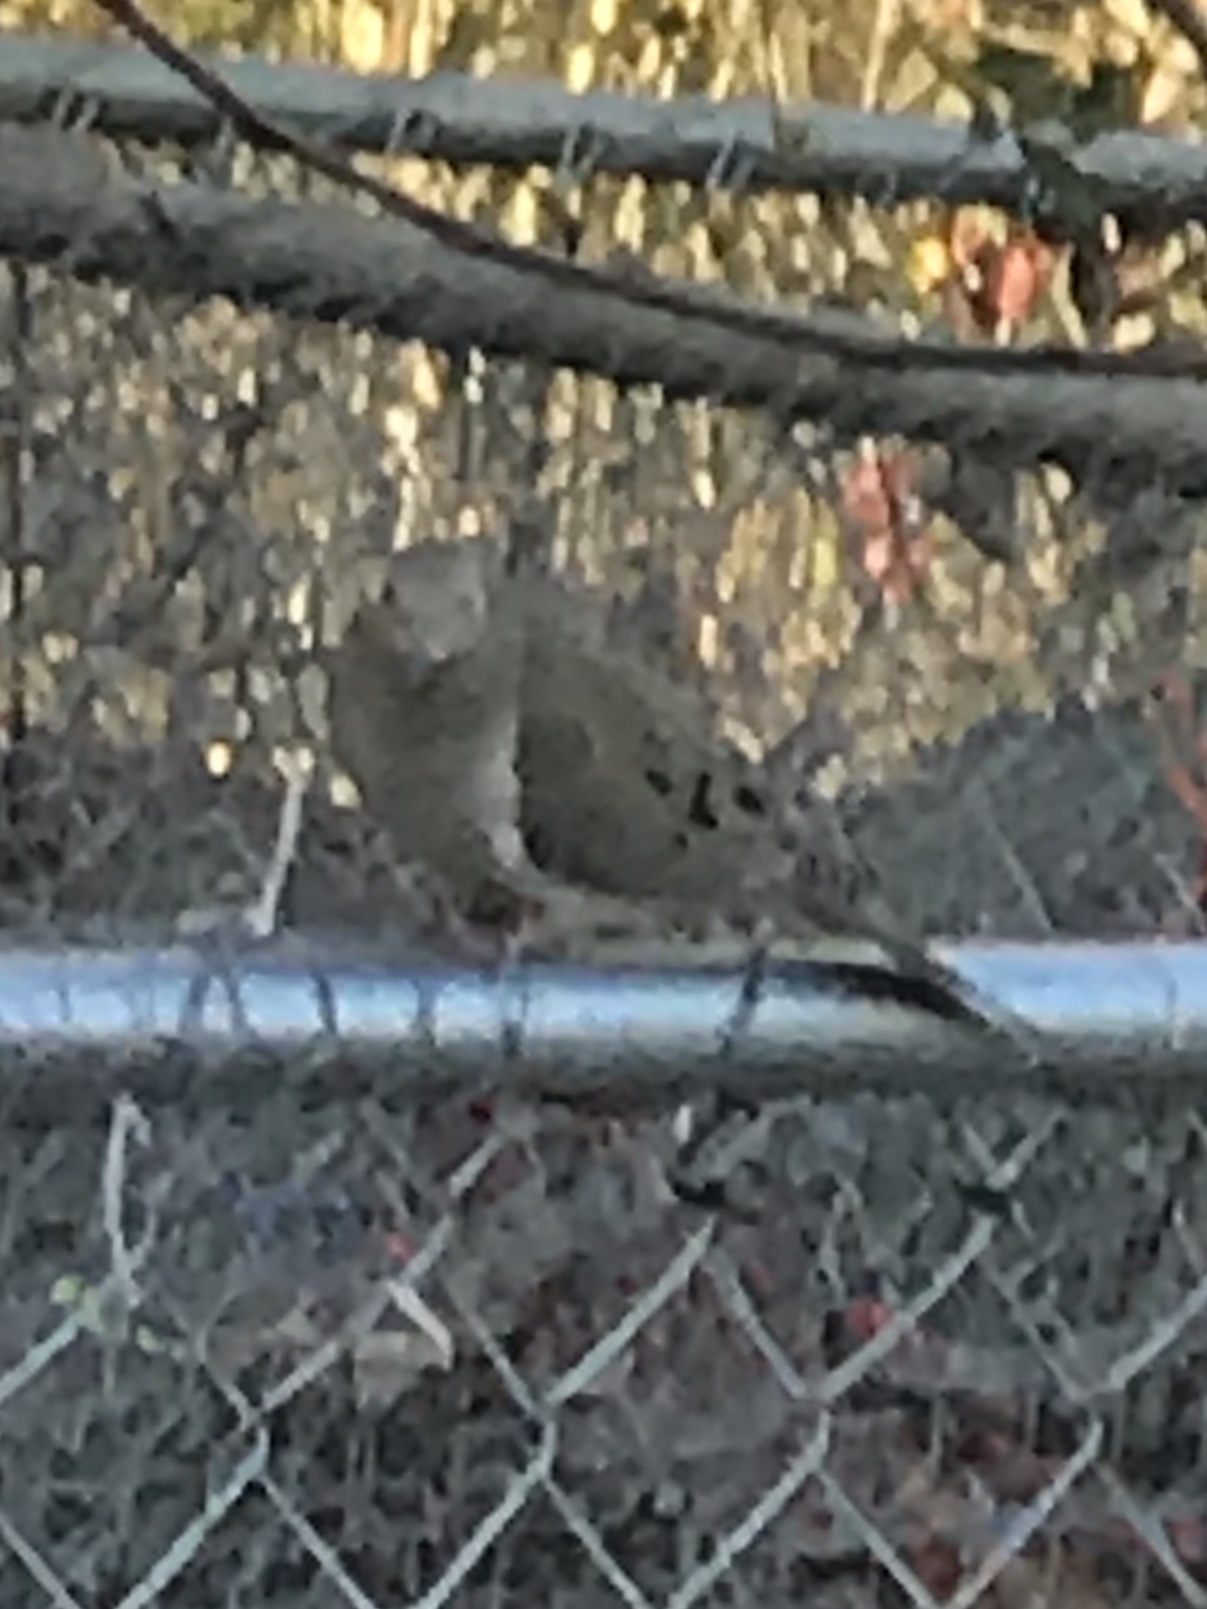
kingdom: Animalia
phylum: Chordata
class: Aves
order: Columbiformes
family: Columbidae
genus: Zenaida
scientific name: Zenaida macroura
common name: Mourning dove
